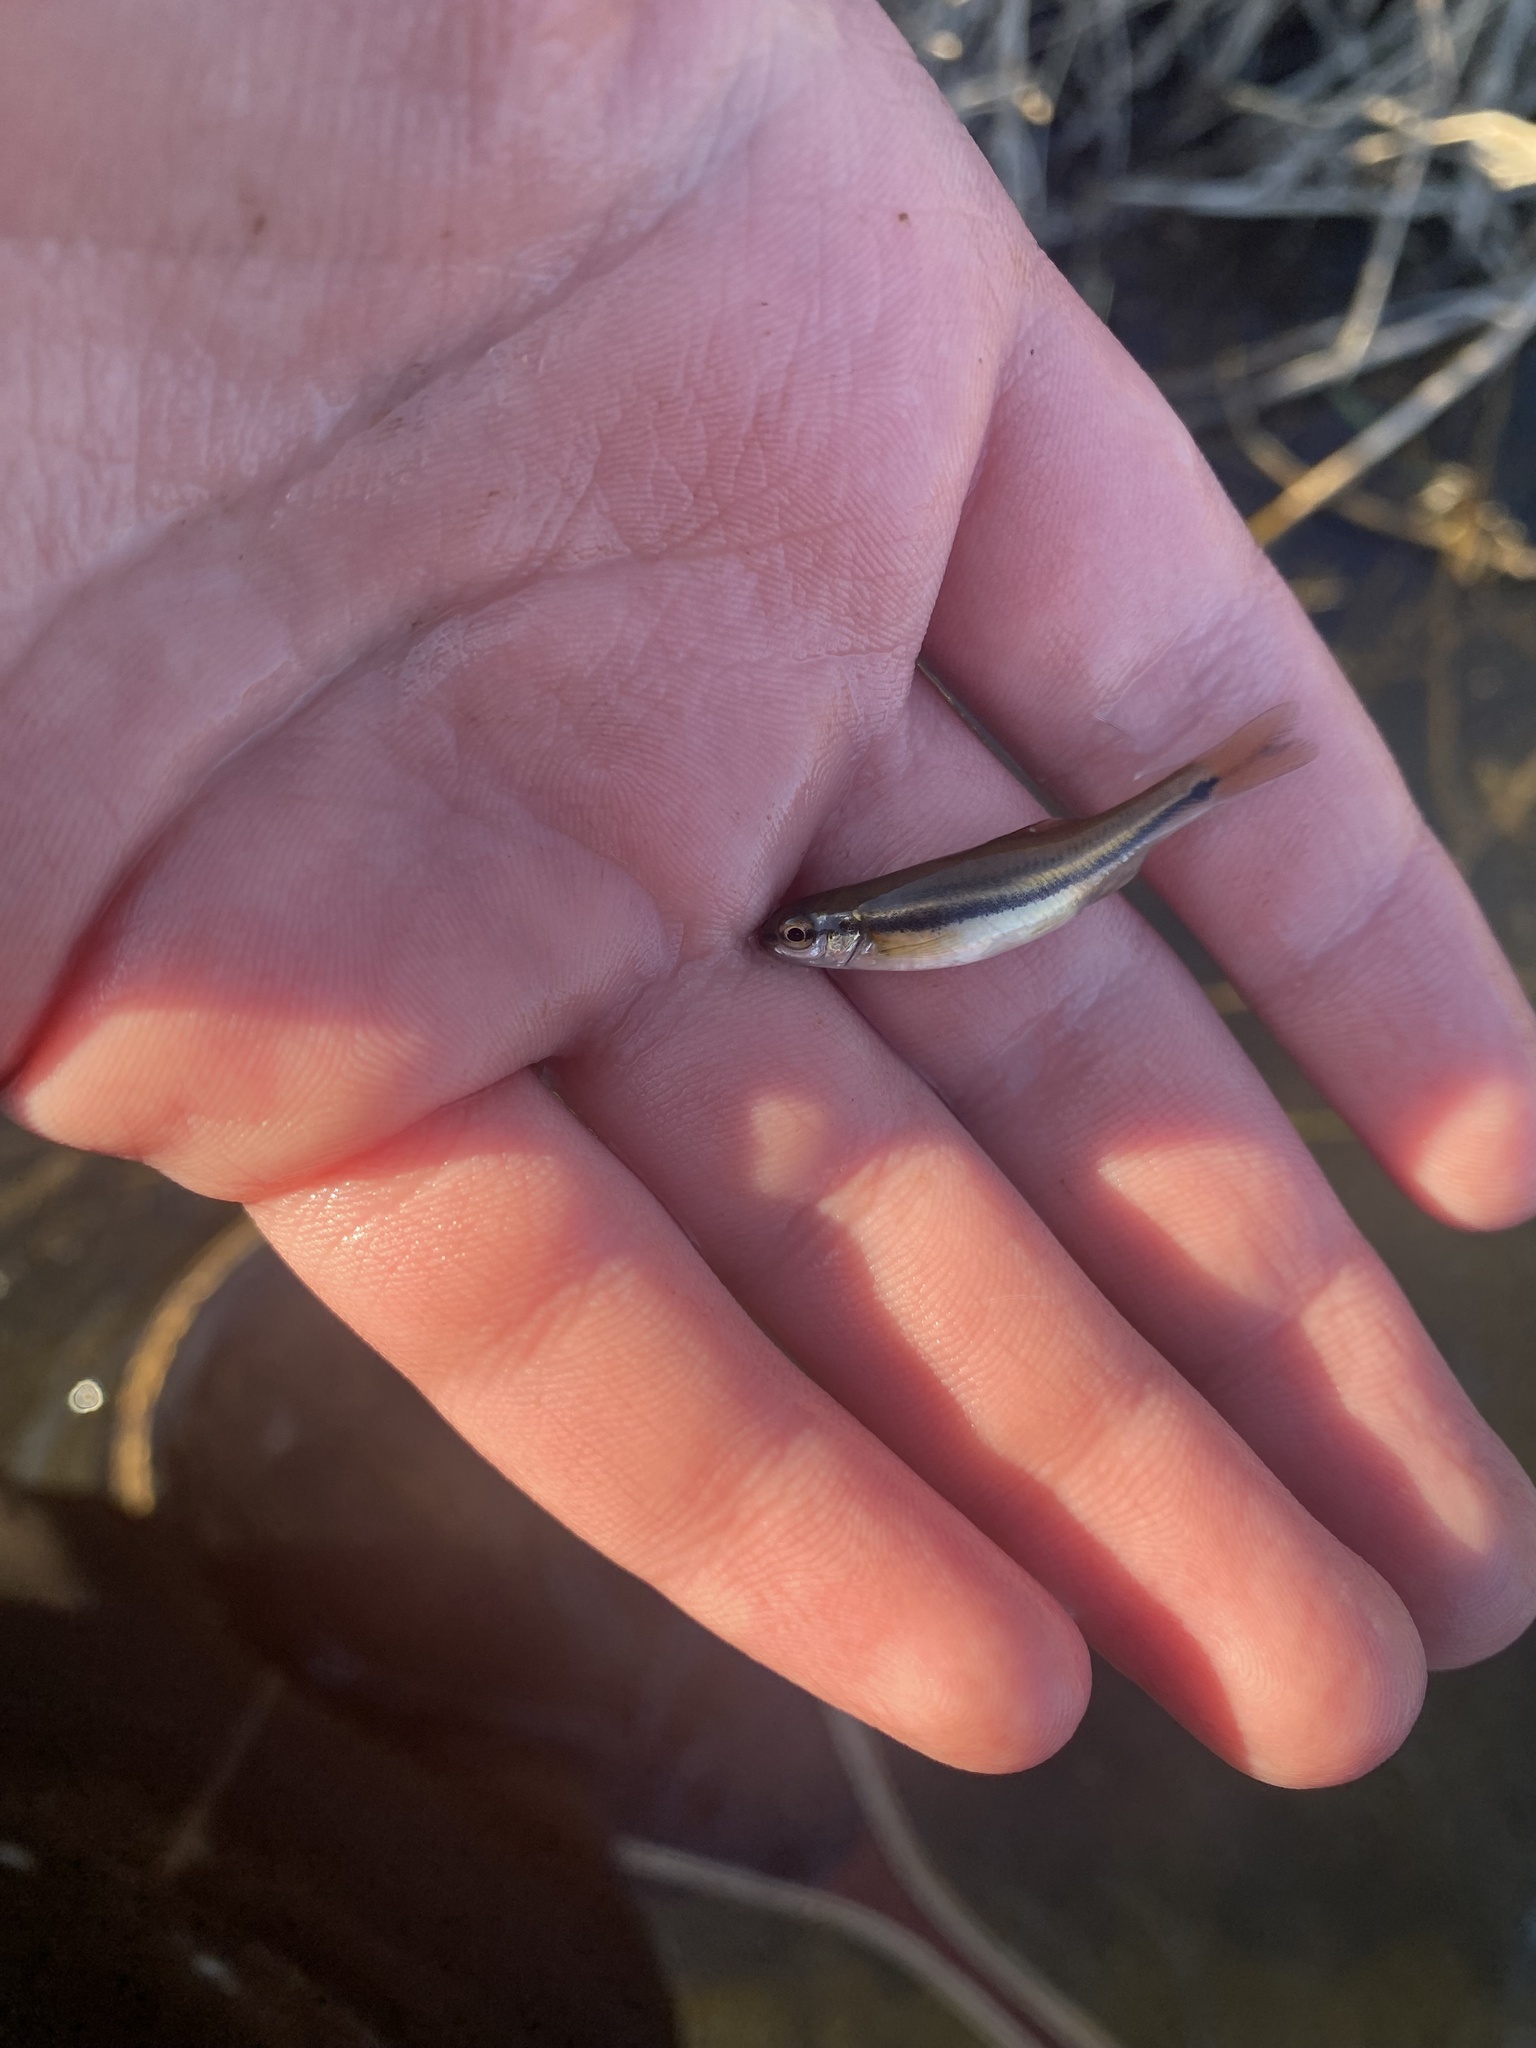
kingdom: Animalia
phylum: Chordata
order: Cypriniformes
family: Cyprinidae
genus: Chrosomus
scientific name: Chrosomus erythrogaster
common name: Southern redbelly dace
